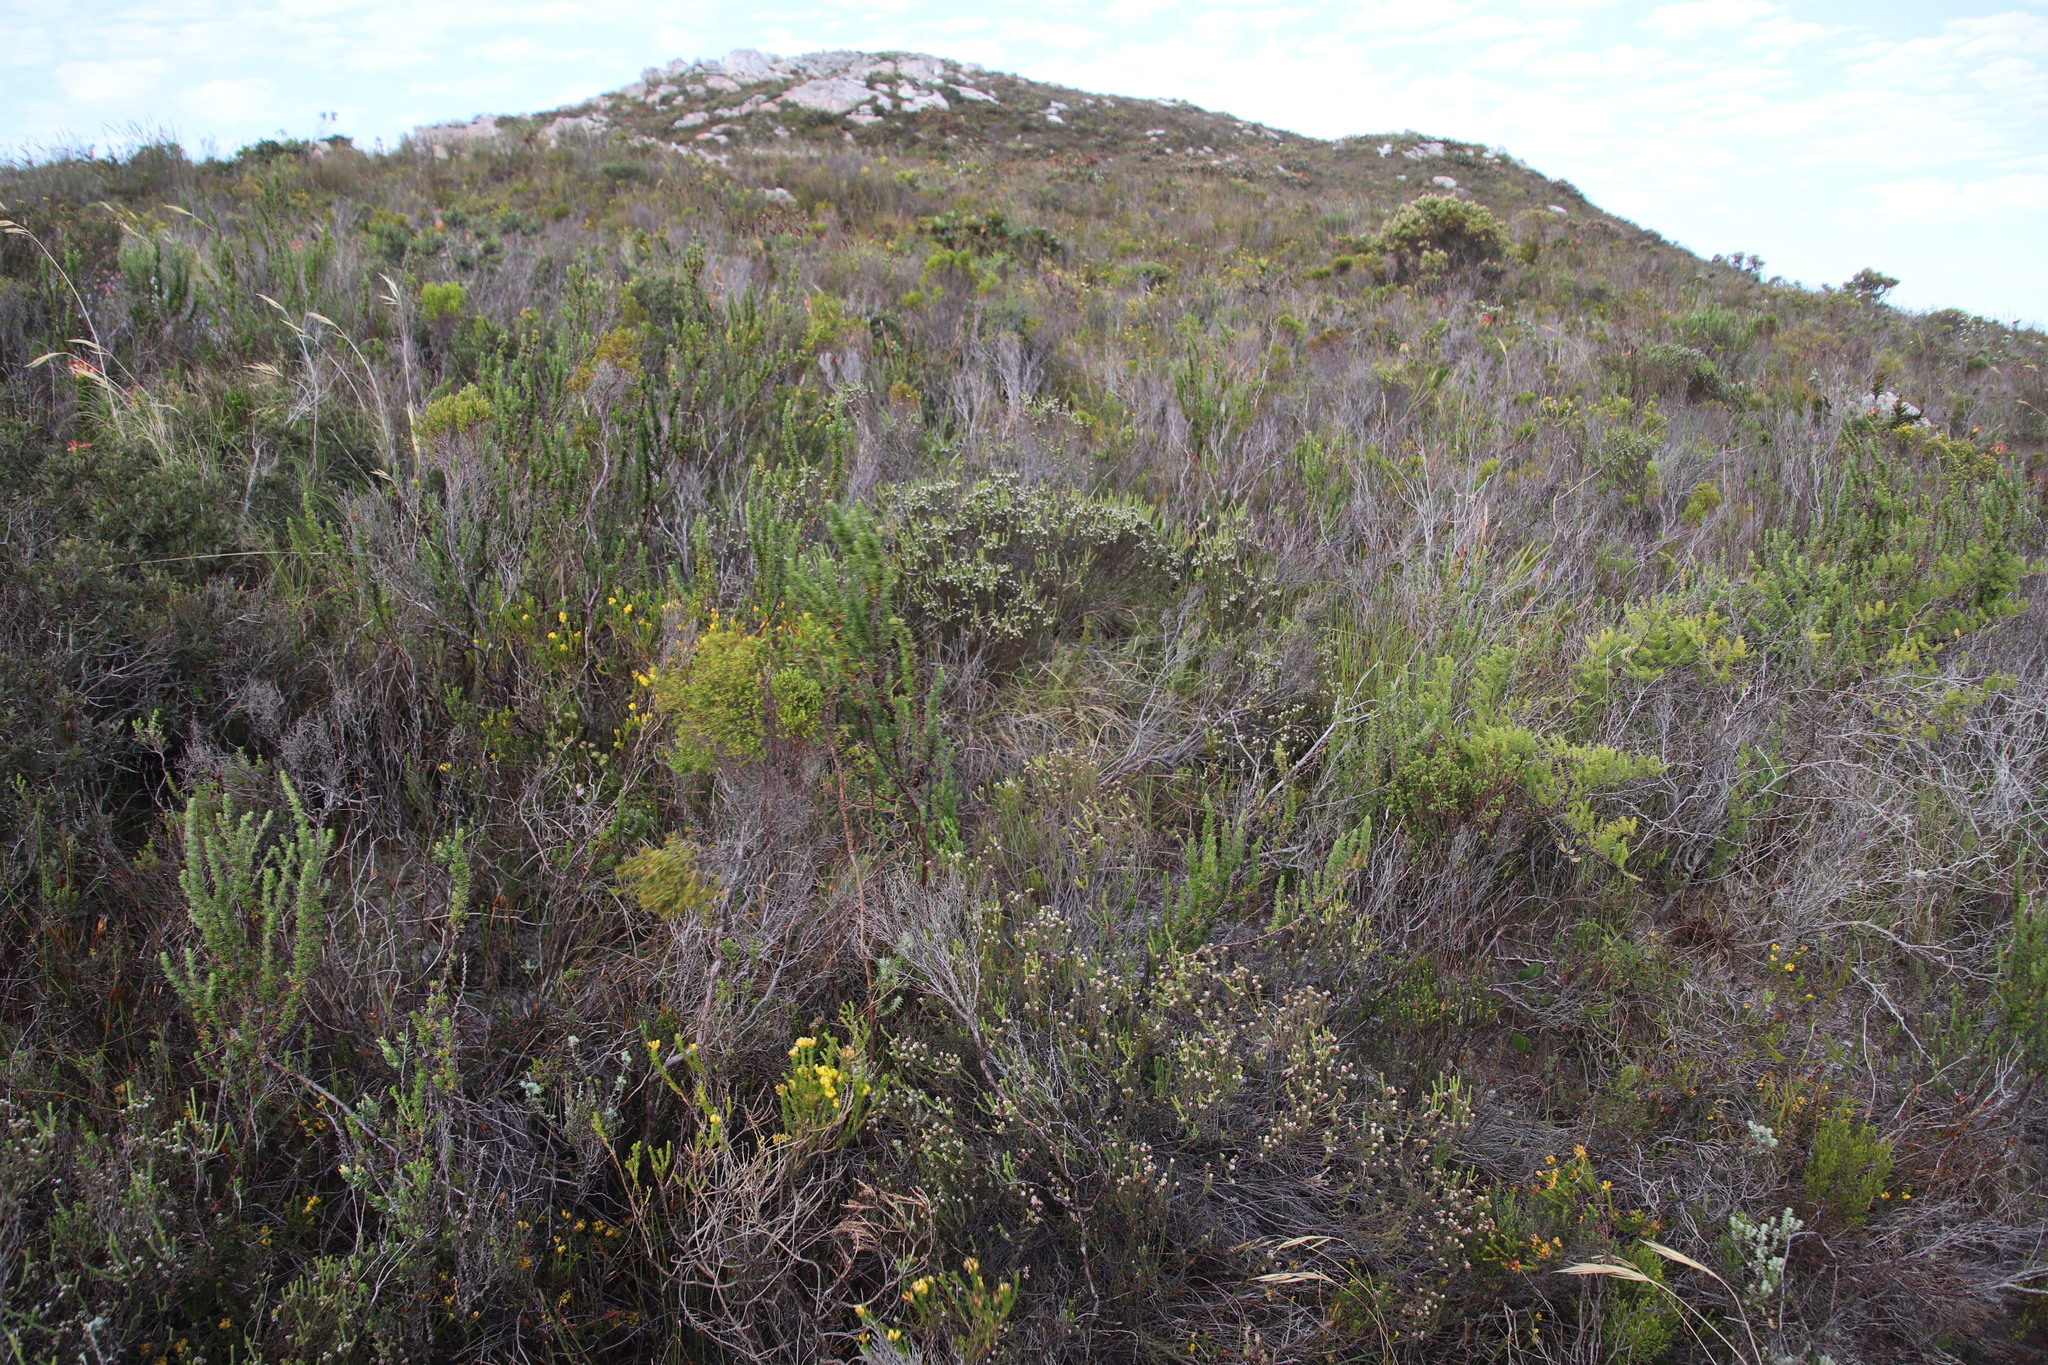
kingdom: Plantae
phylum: Tracheophyta
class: Magnoliopsida
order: Bruniales
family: Bruniaceae
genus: Staavia
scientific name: Staavia radiata
